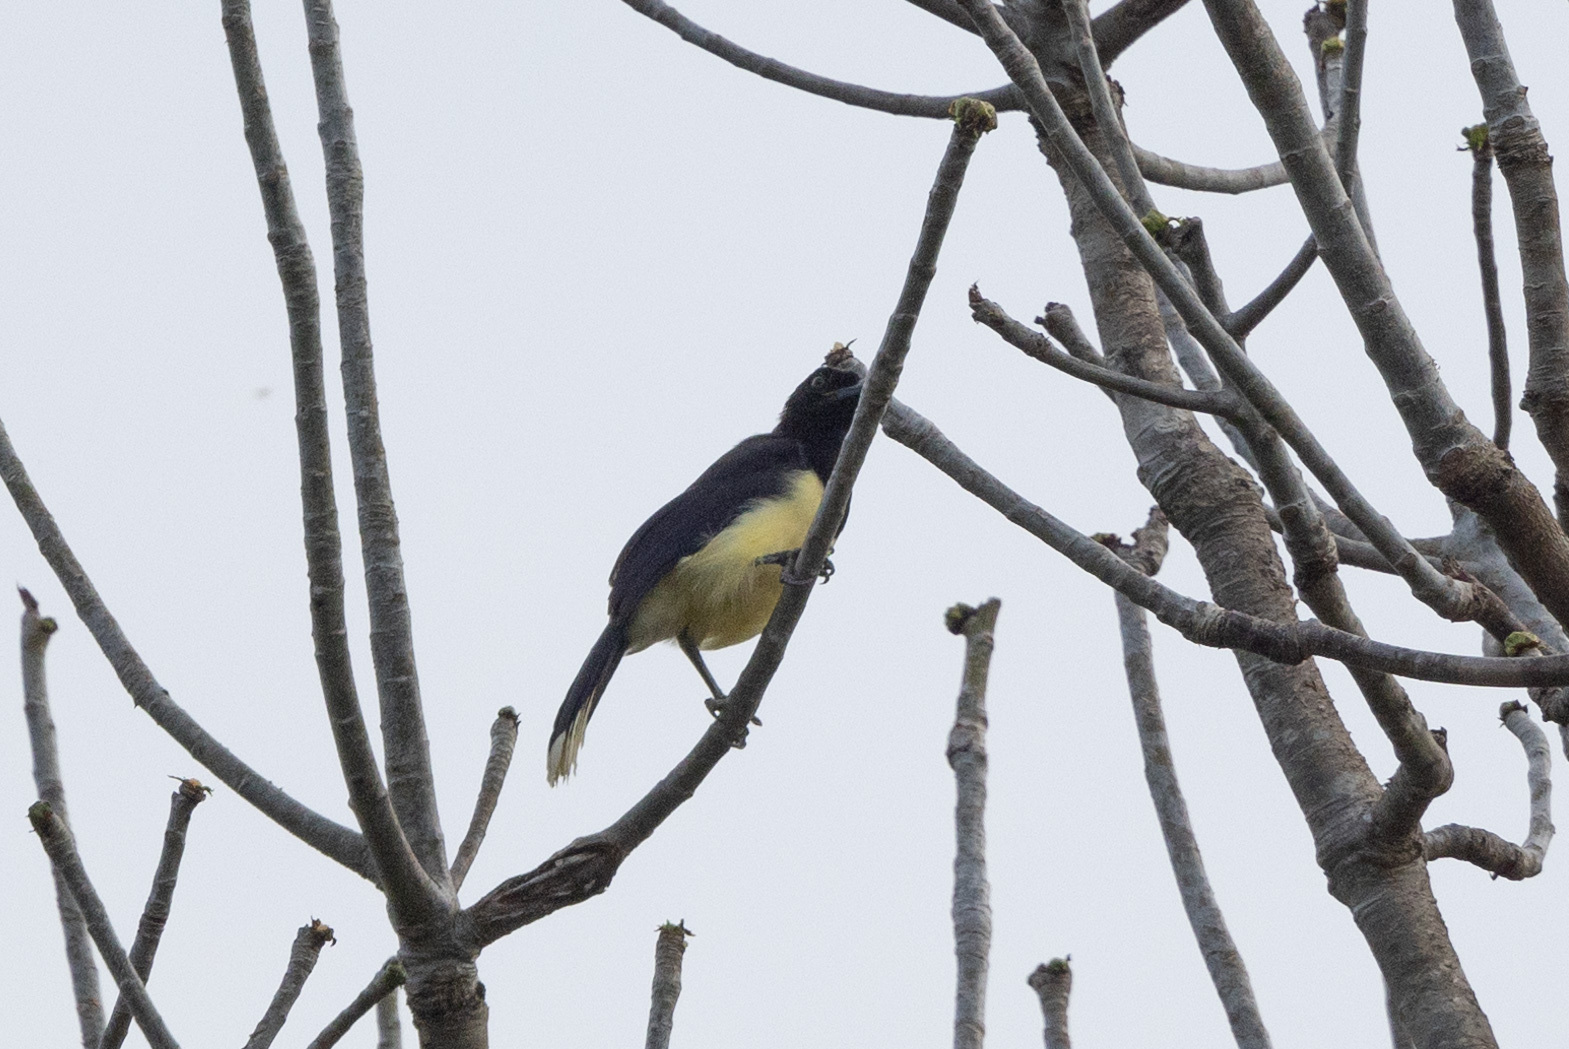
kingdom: Animalia
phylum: Chordata
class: Aves
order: Passeriformes
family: Corvidae
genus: Cyanocorax
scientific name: Cyanocorax affinis
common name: Black-chested jay
